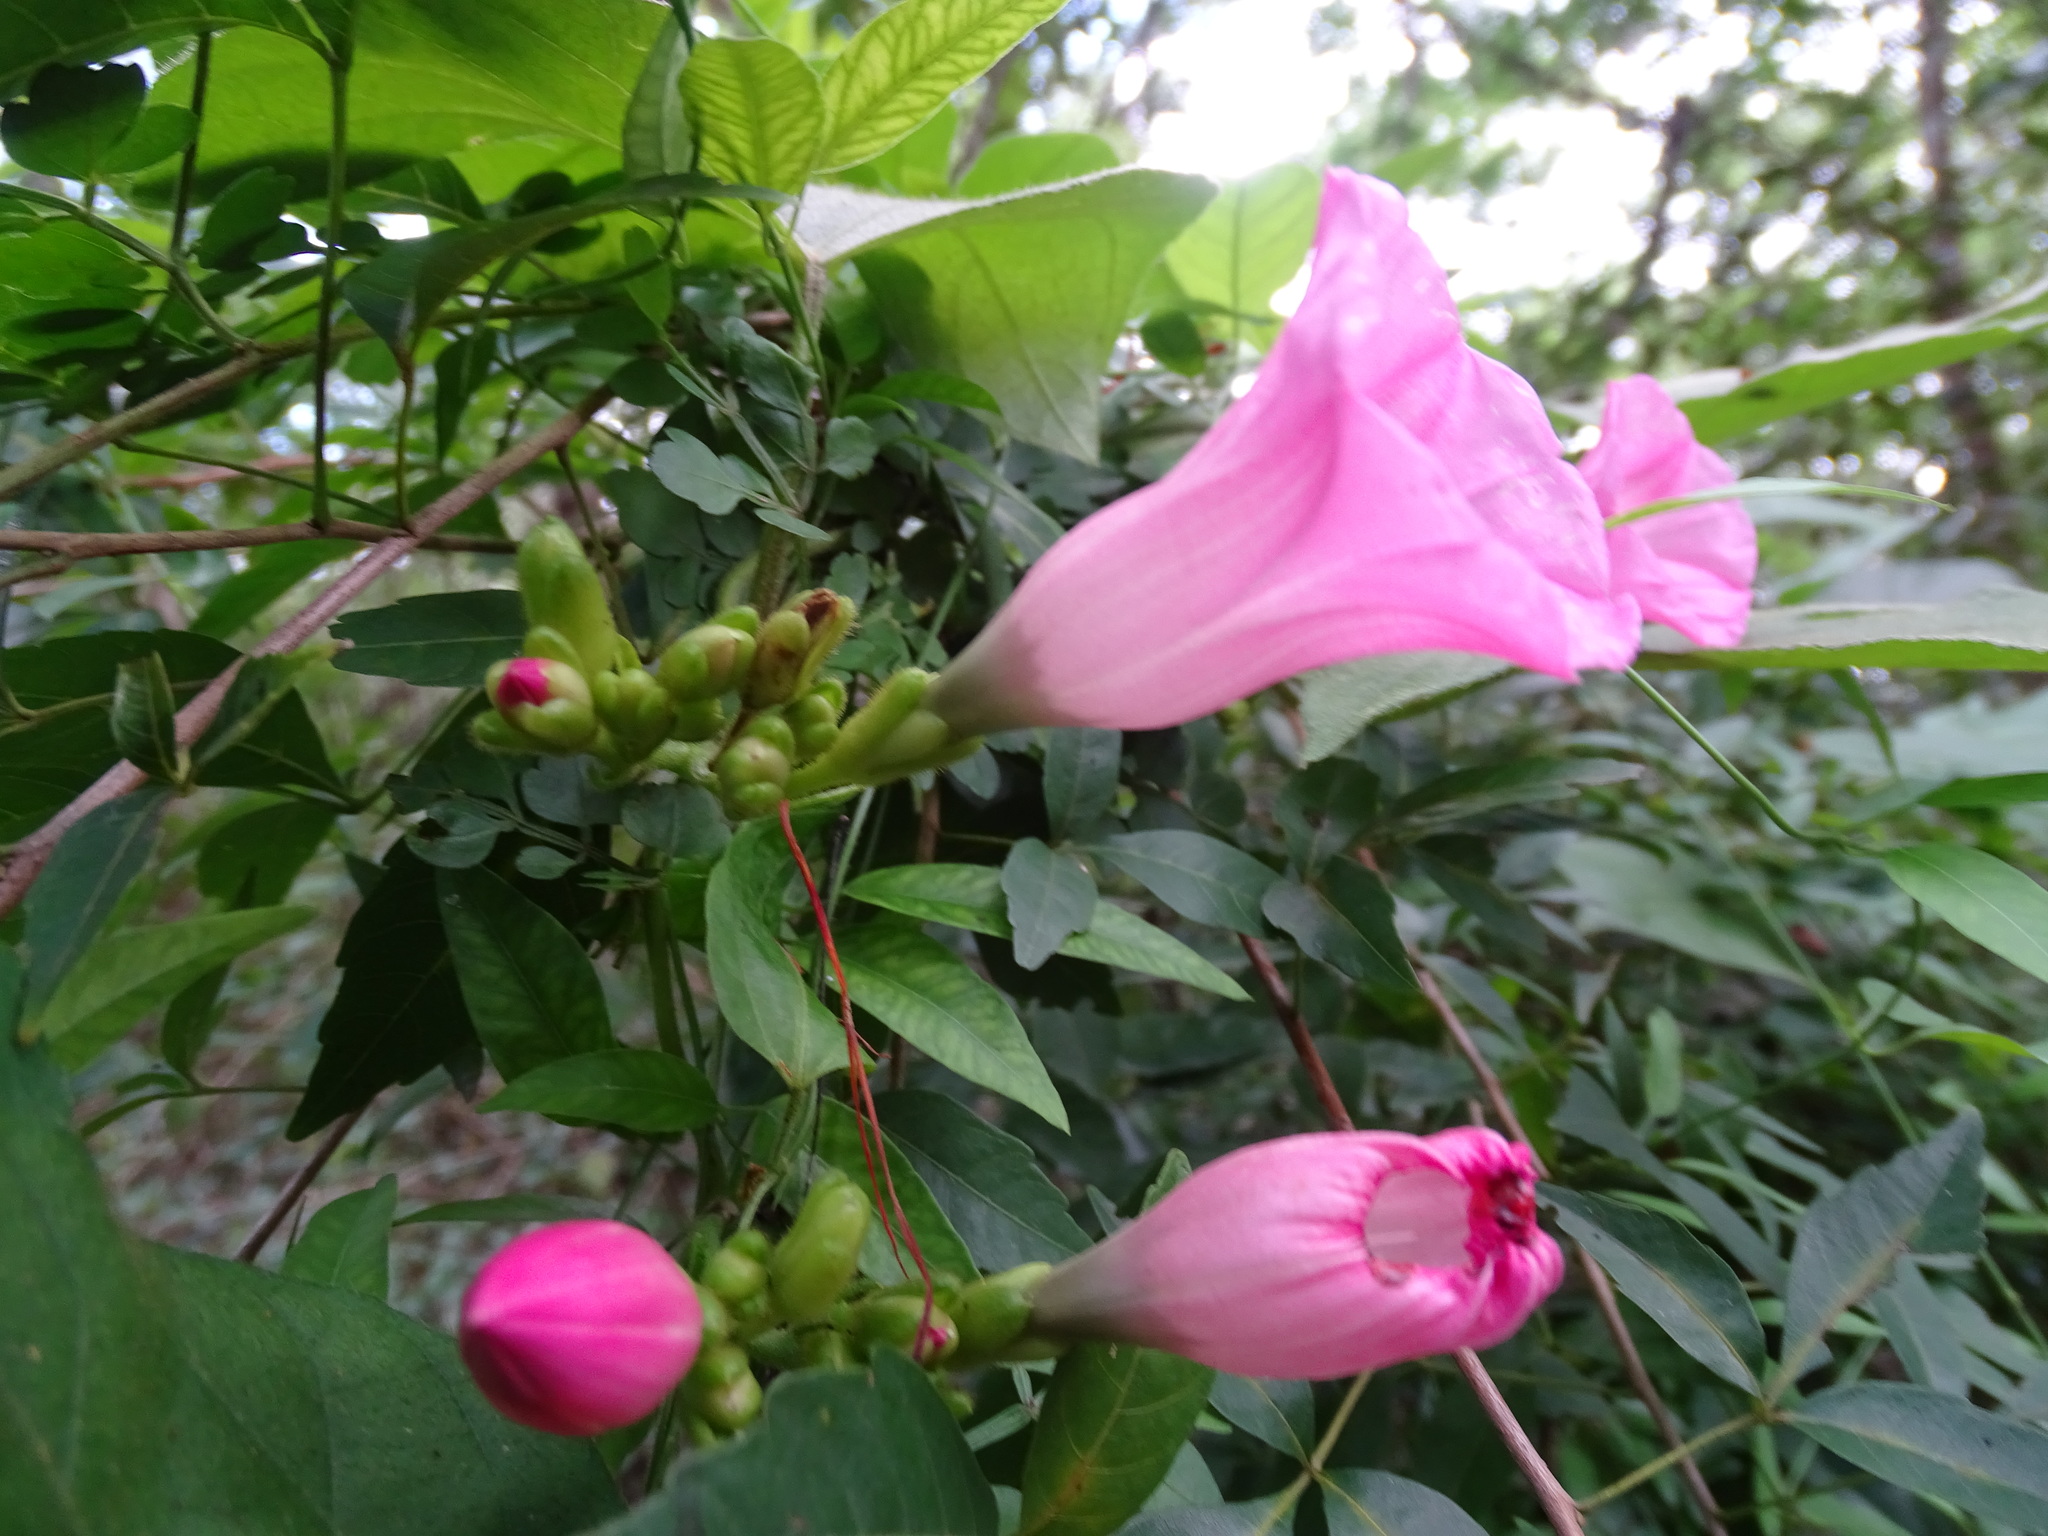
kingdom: Plantae
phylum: Tracheophyta
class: Magnoliopsida
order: Solanales
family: Convolvulaceae
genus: Ipomoea
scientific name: Ipomoea peteri
